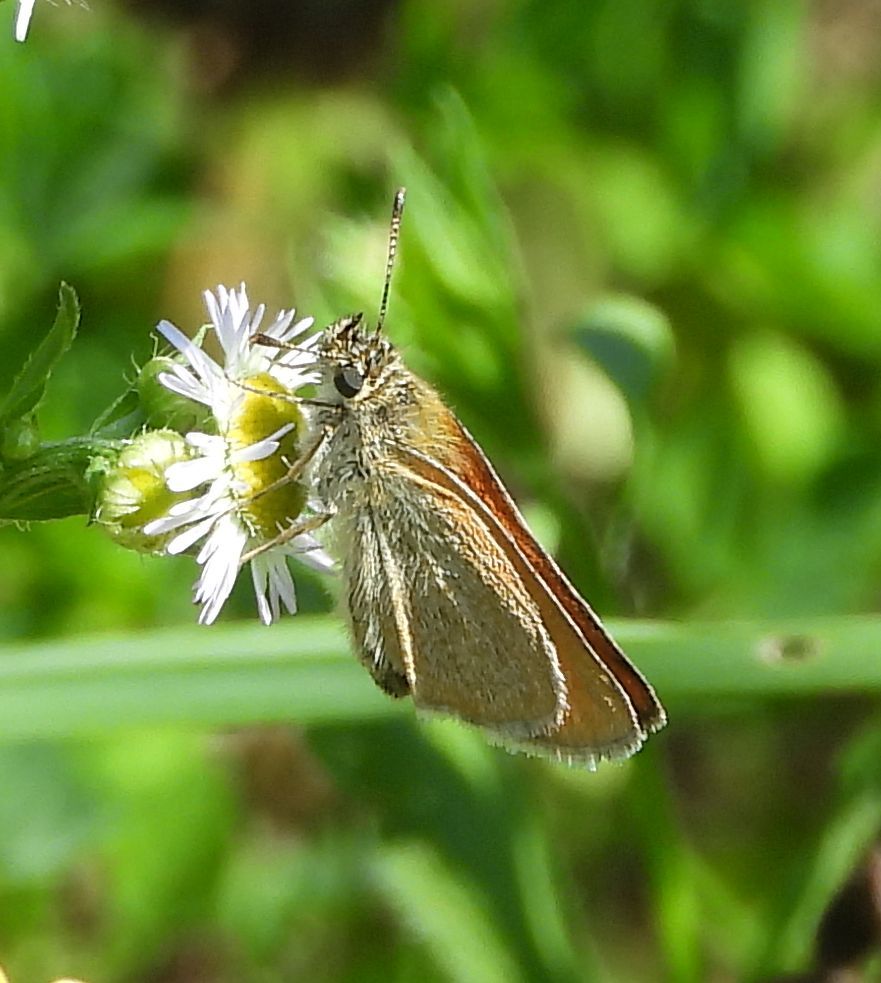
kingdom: Animalia
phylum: Arthropoda
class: Insecta
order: Lepidoptera
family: Hesperiidae
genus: Thymelicus
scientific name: Thymelicus lineola
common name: Essex skipper
